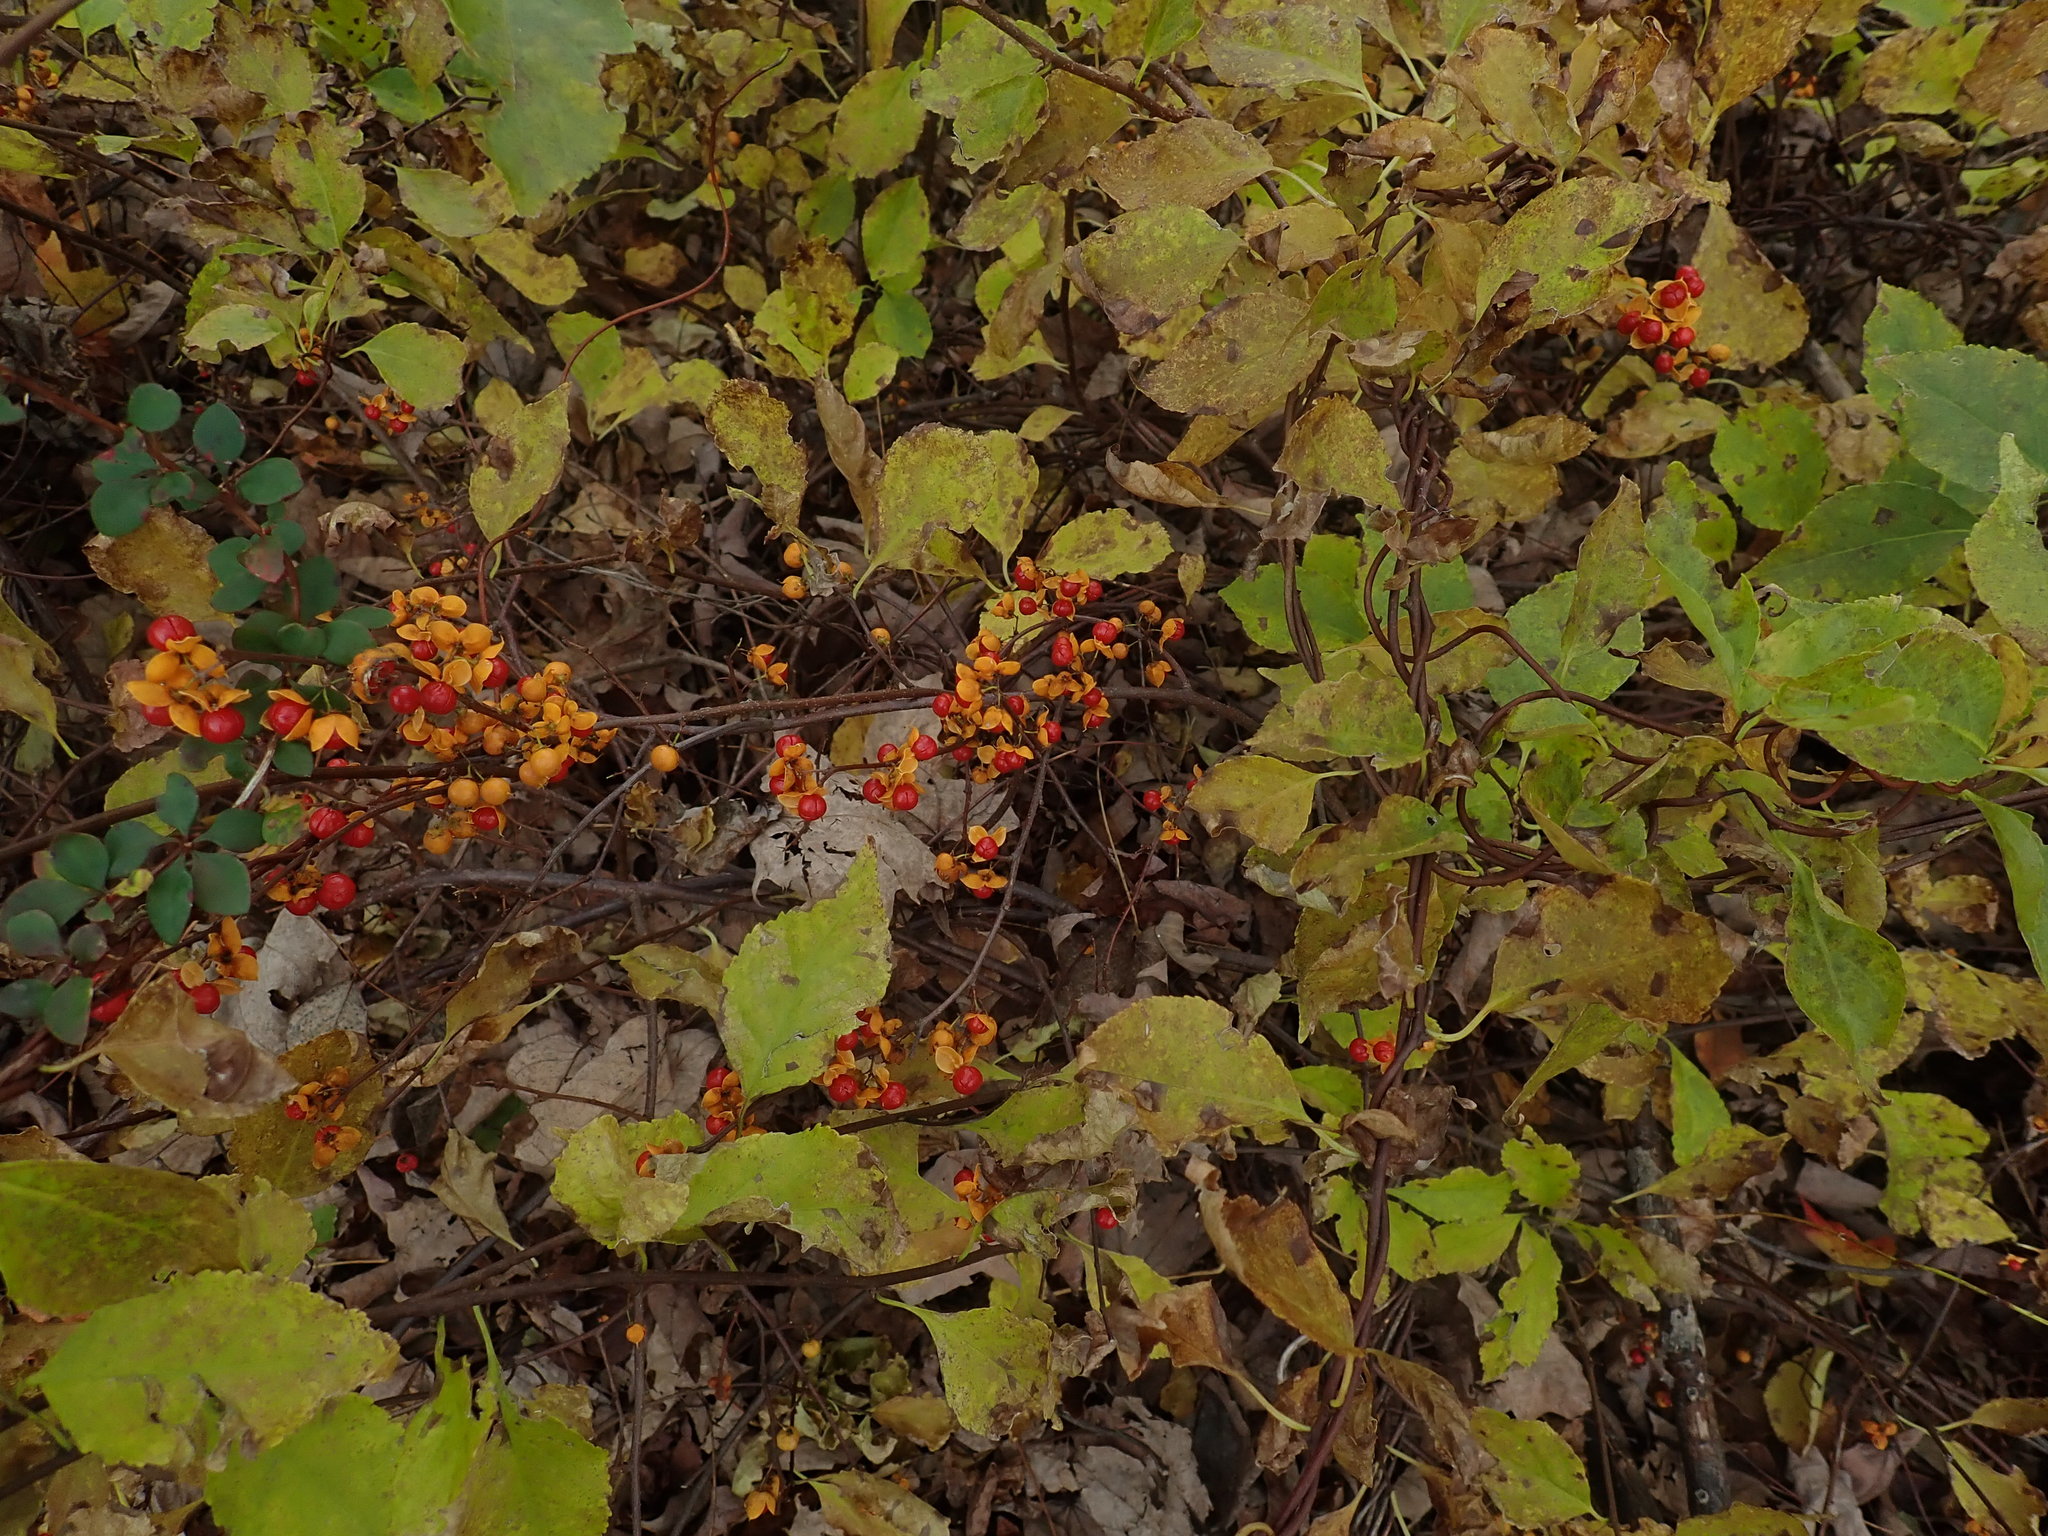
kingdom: Plantae
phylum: Tracheophyta
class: Magnoliopsida
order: Celastrales
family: Celastraceae
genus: Celastrus
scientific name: Celastrus orbiculatus
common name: Oriental bittersweet
